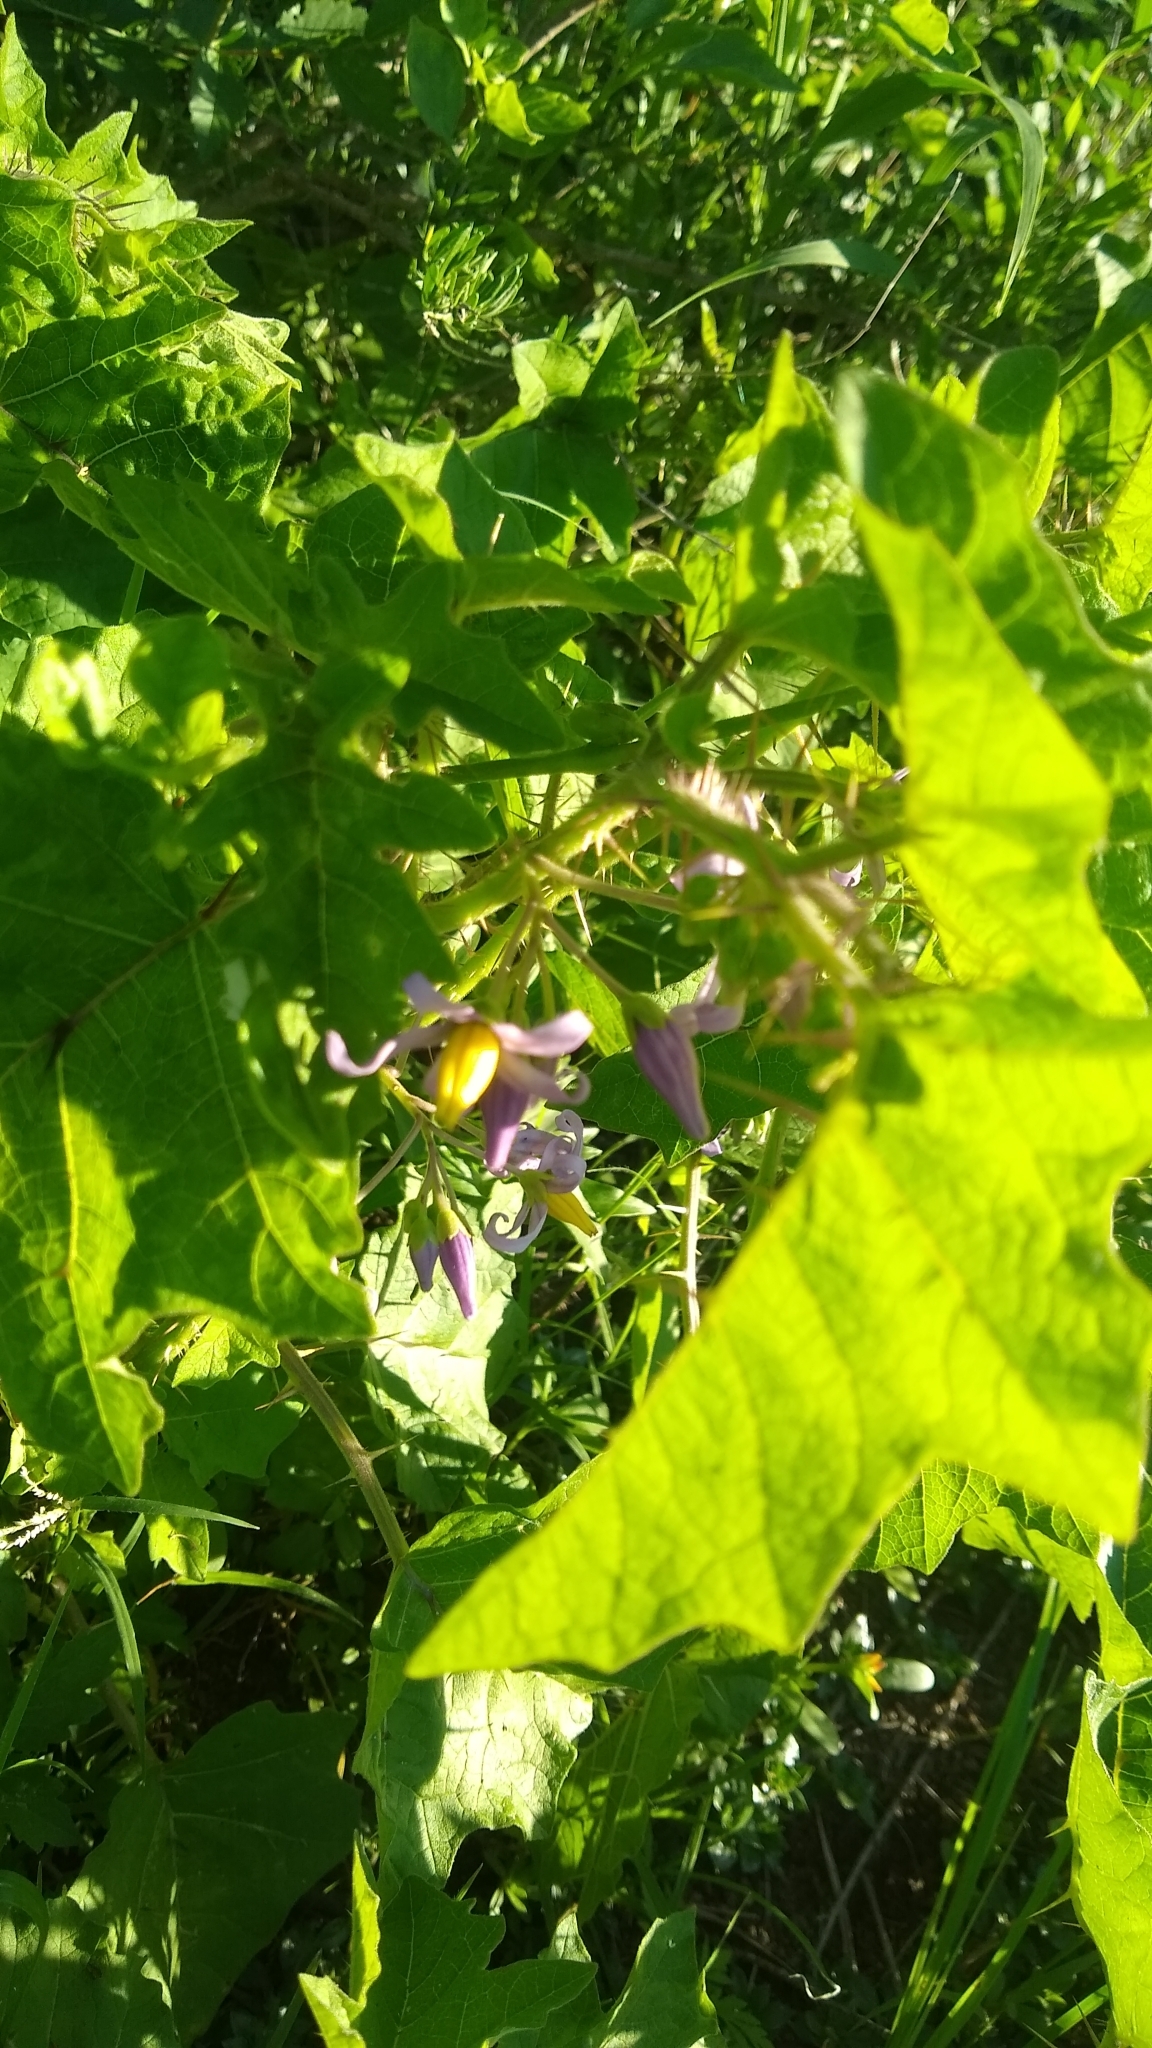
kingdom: Plantae
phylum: Tracheophyta
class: Magnoliopsida
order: Solanales
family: Solanaceae
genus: Solanum
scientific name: Solanum palinacanthum
